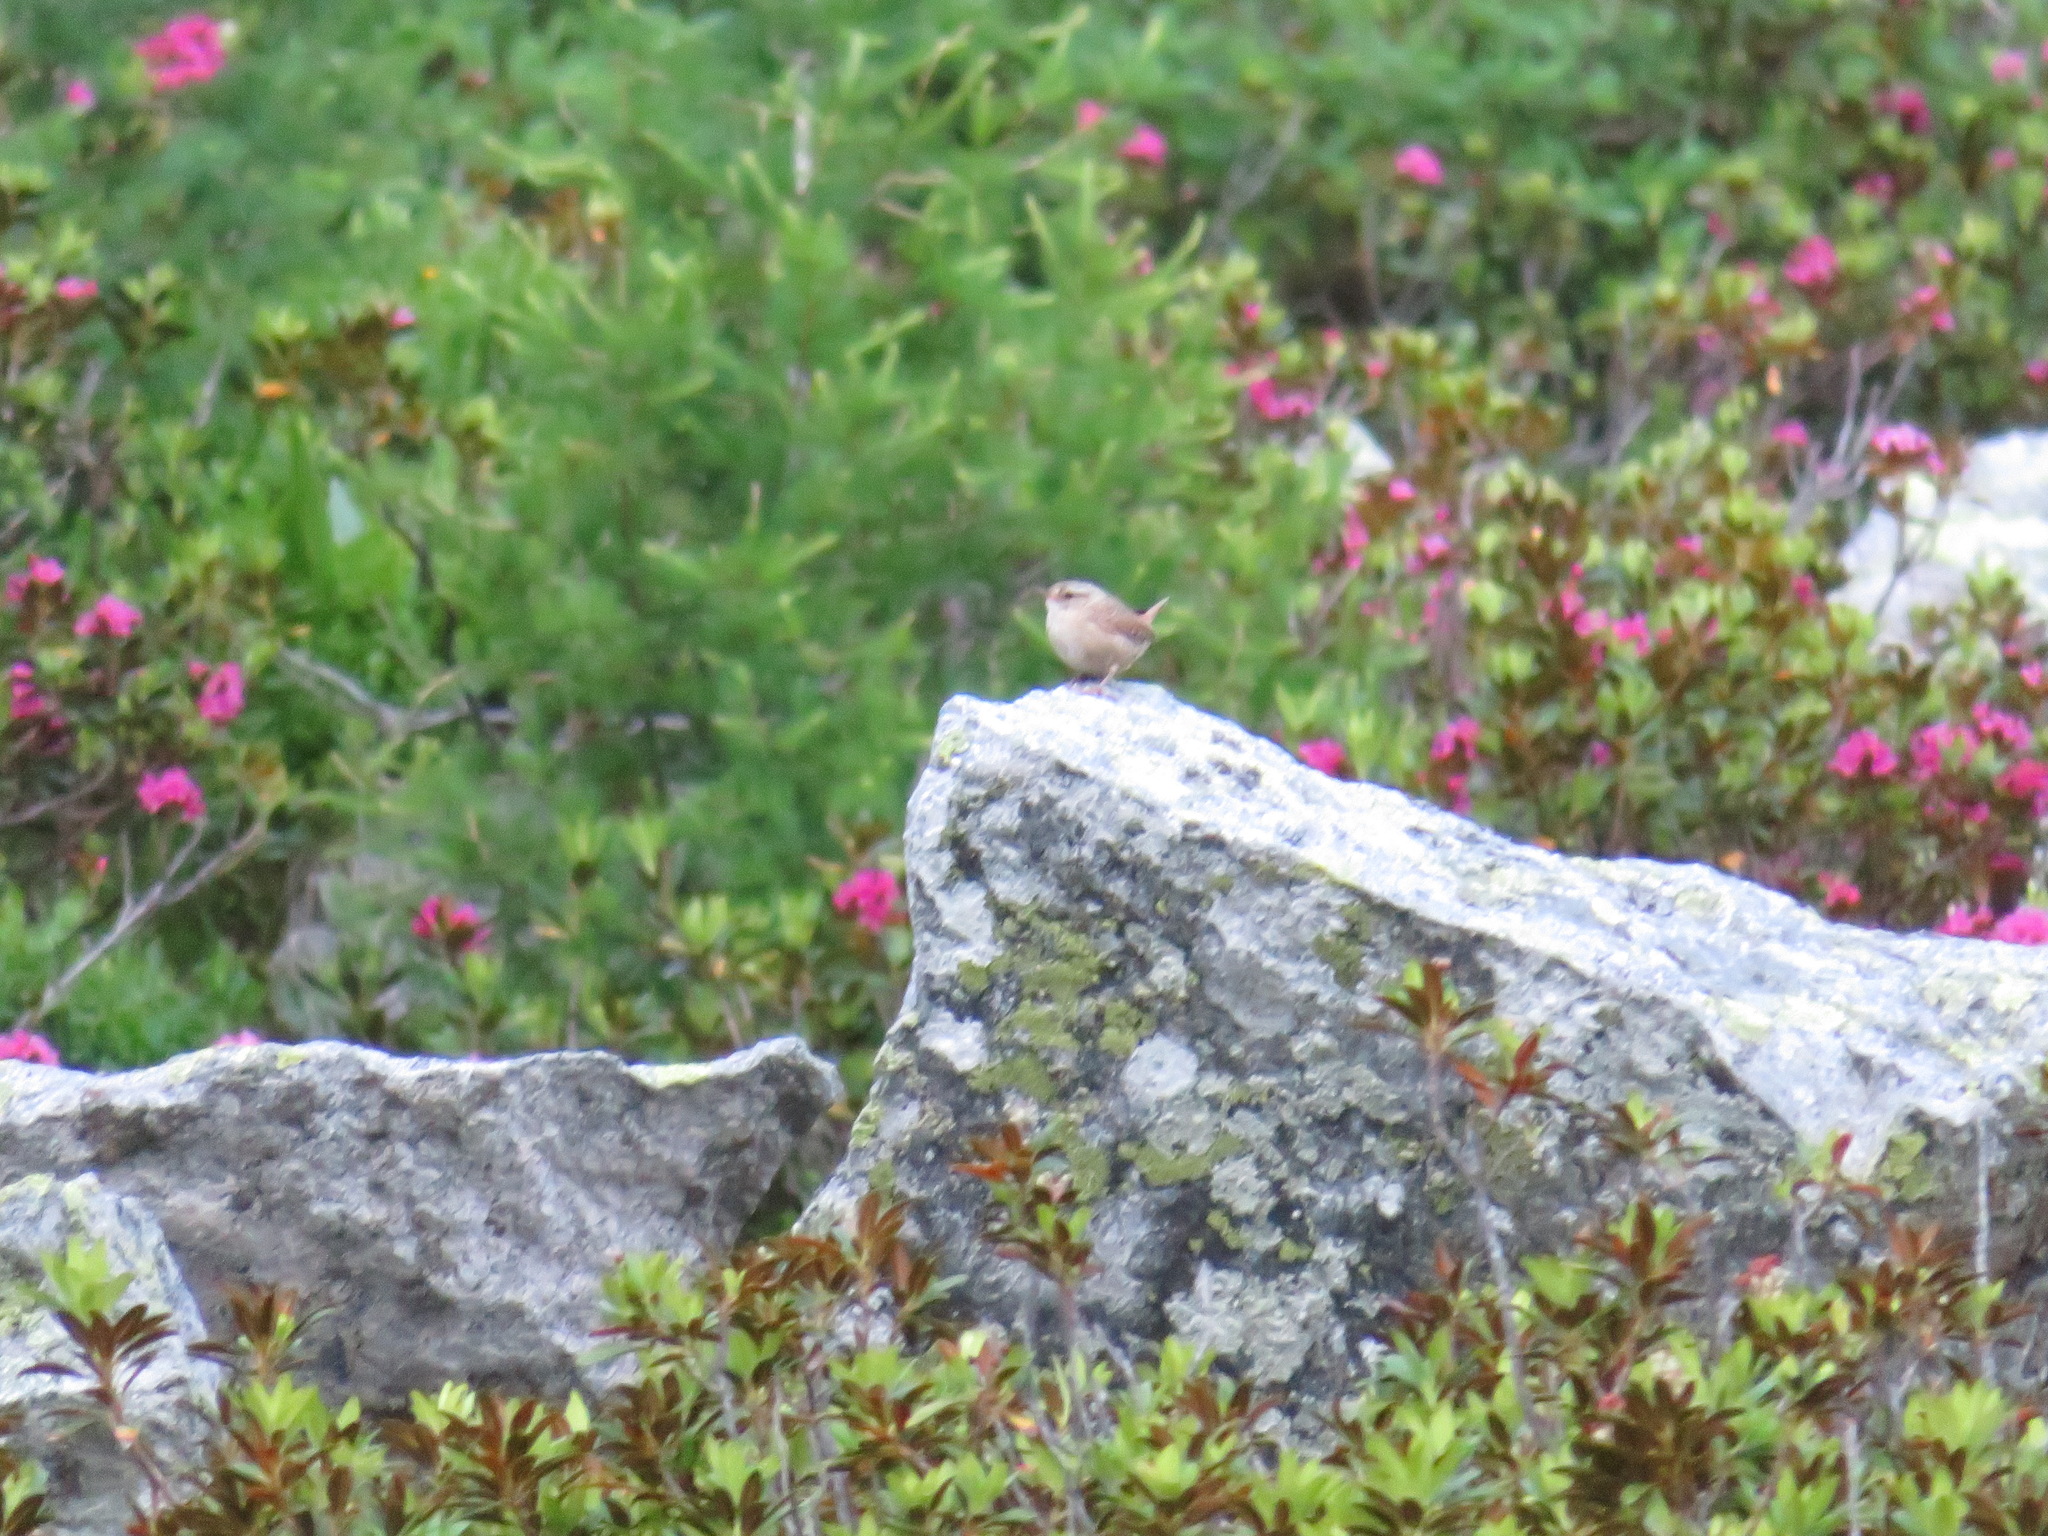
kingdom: Animalia
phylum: Chordata
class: Aves
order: Passeriformes
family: Troglodytidae
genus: Troglodytes
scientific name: Troglodytes troglodytes
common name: Eurasian wren
